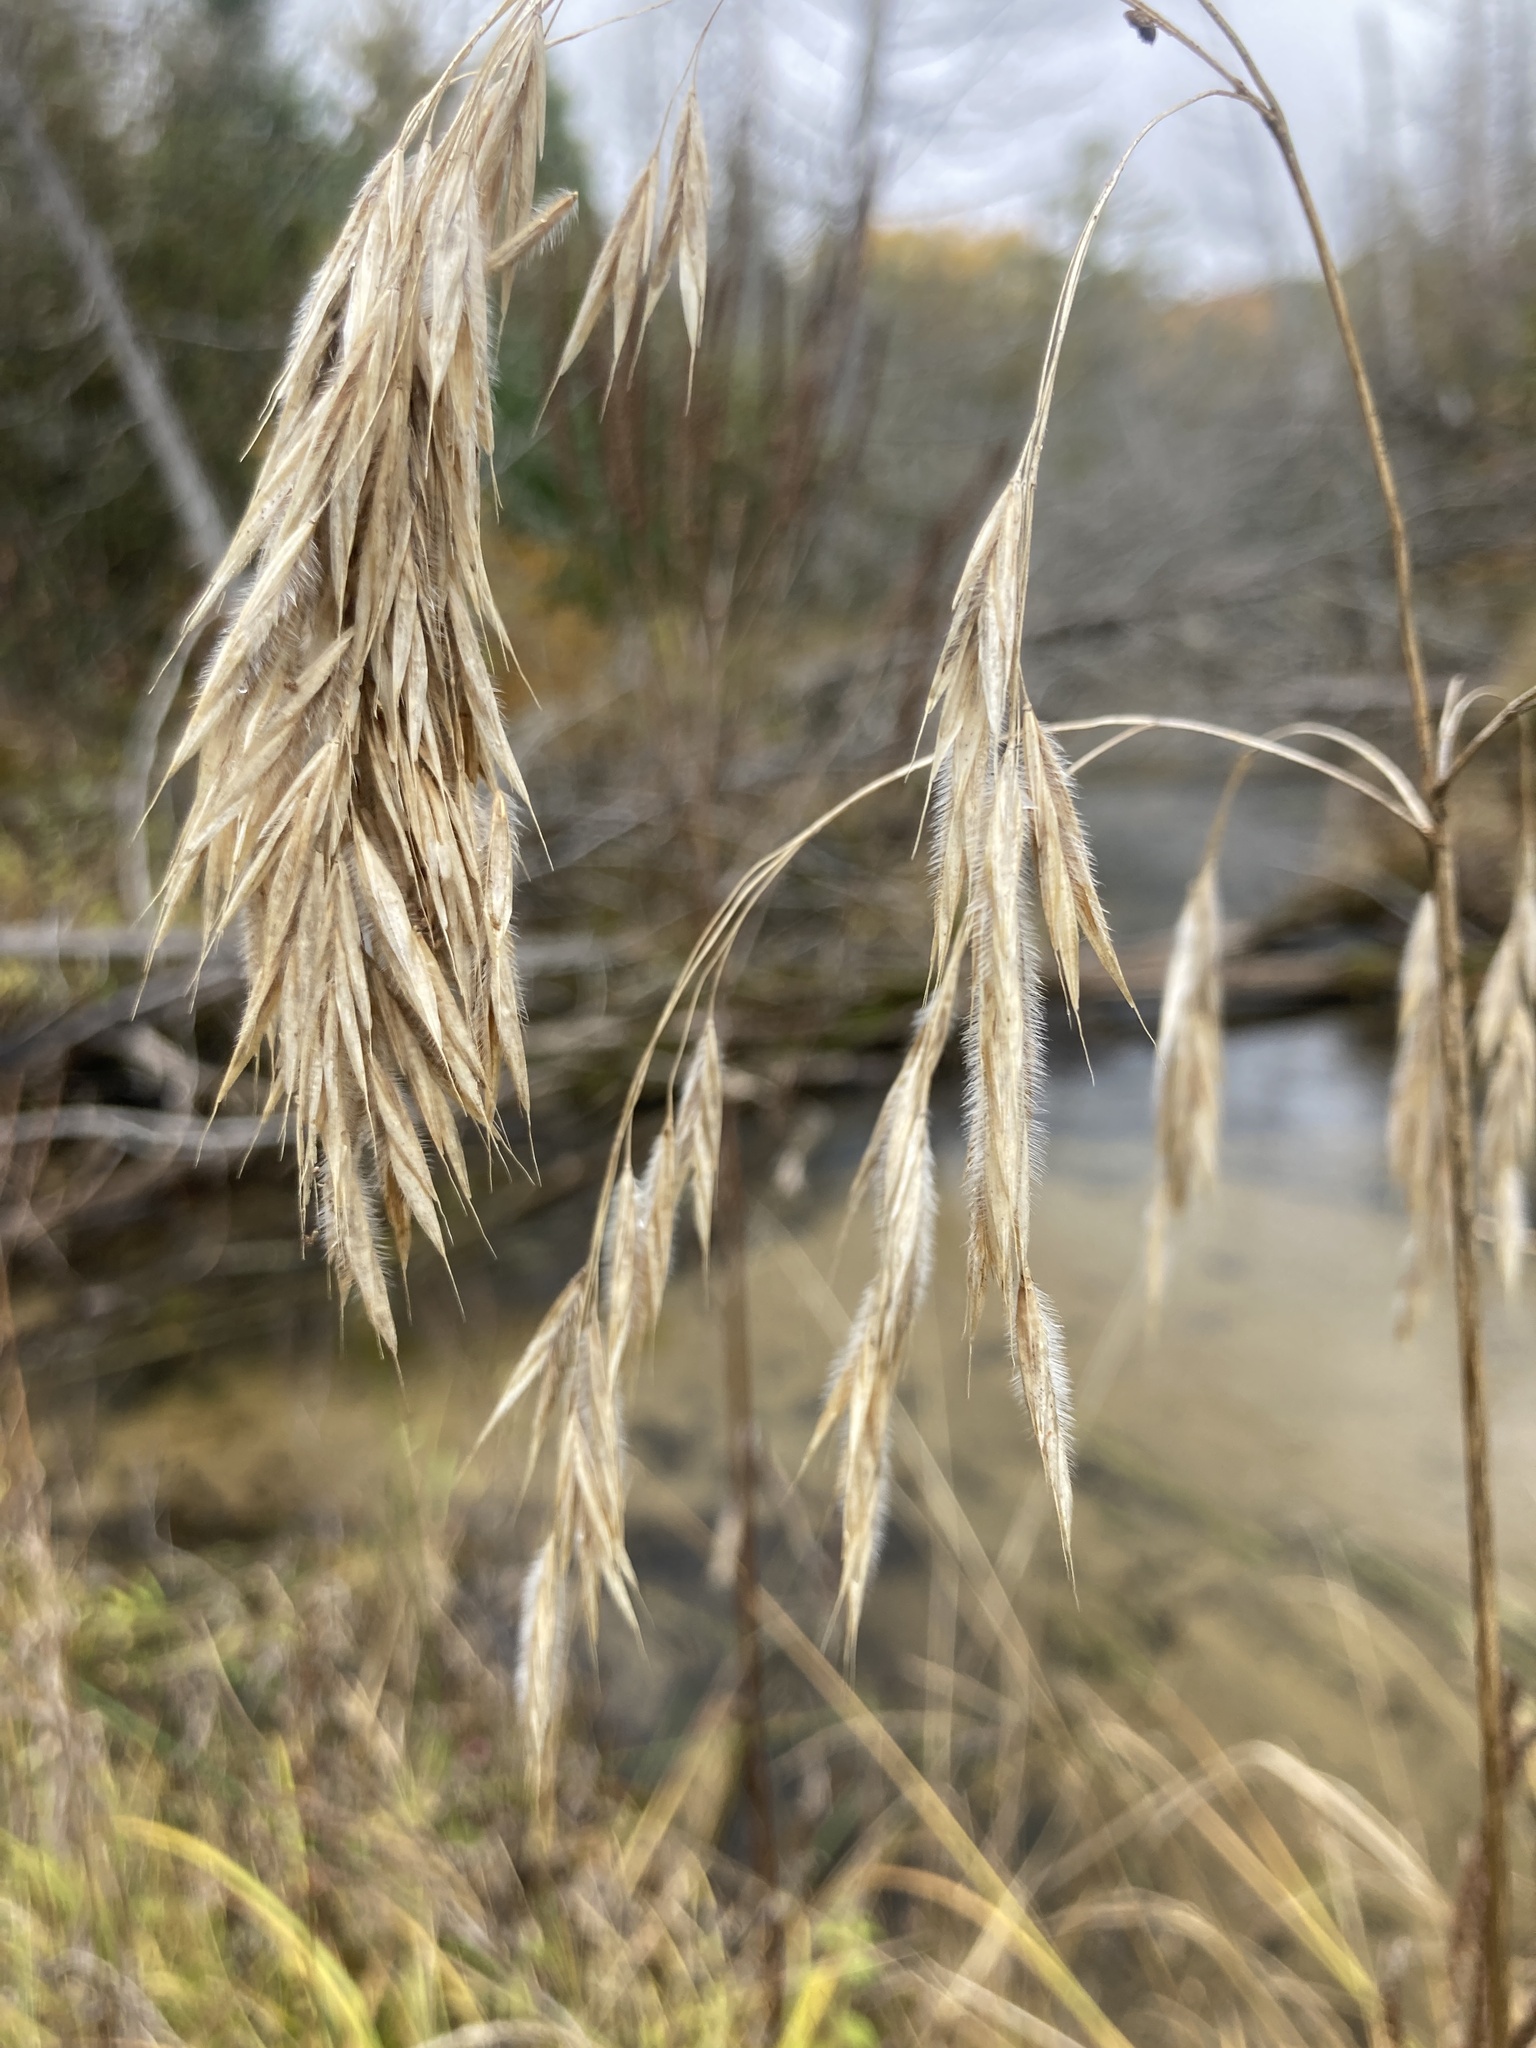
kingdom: Plantae
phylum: Tracheophyta
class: Liliopsida
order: Poales
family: Poaceae
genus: Bromus
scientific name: Bromus ciliatus
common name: Fringe brome
